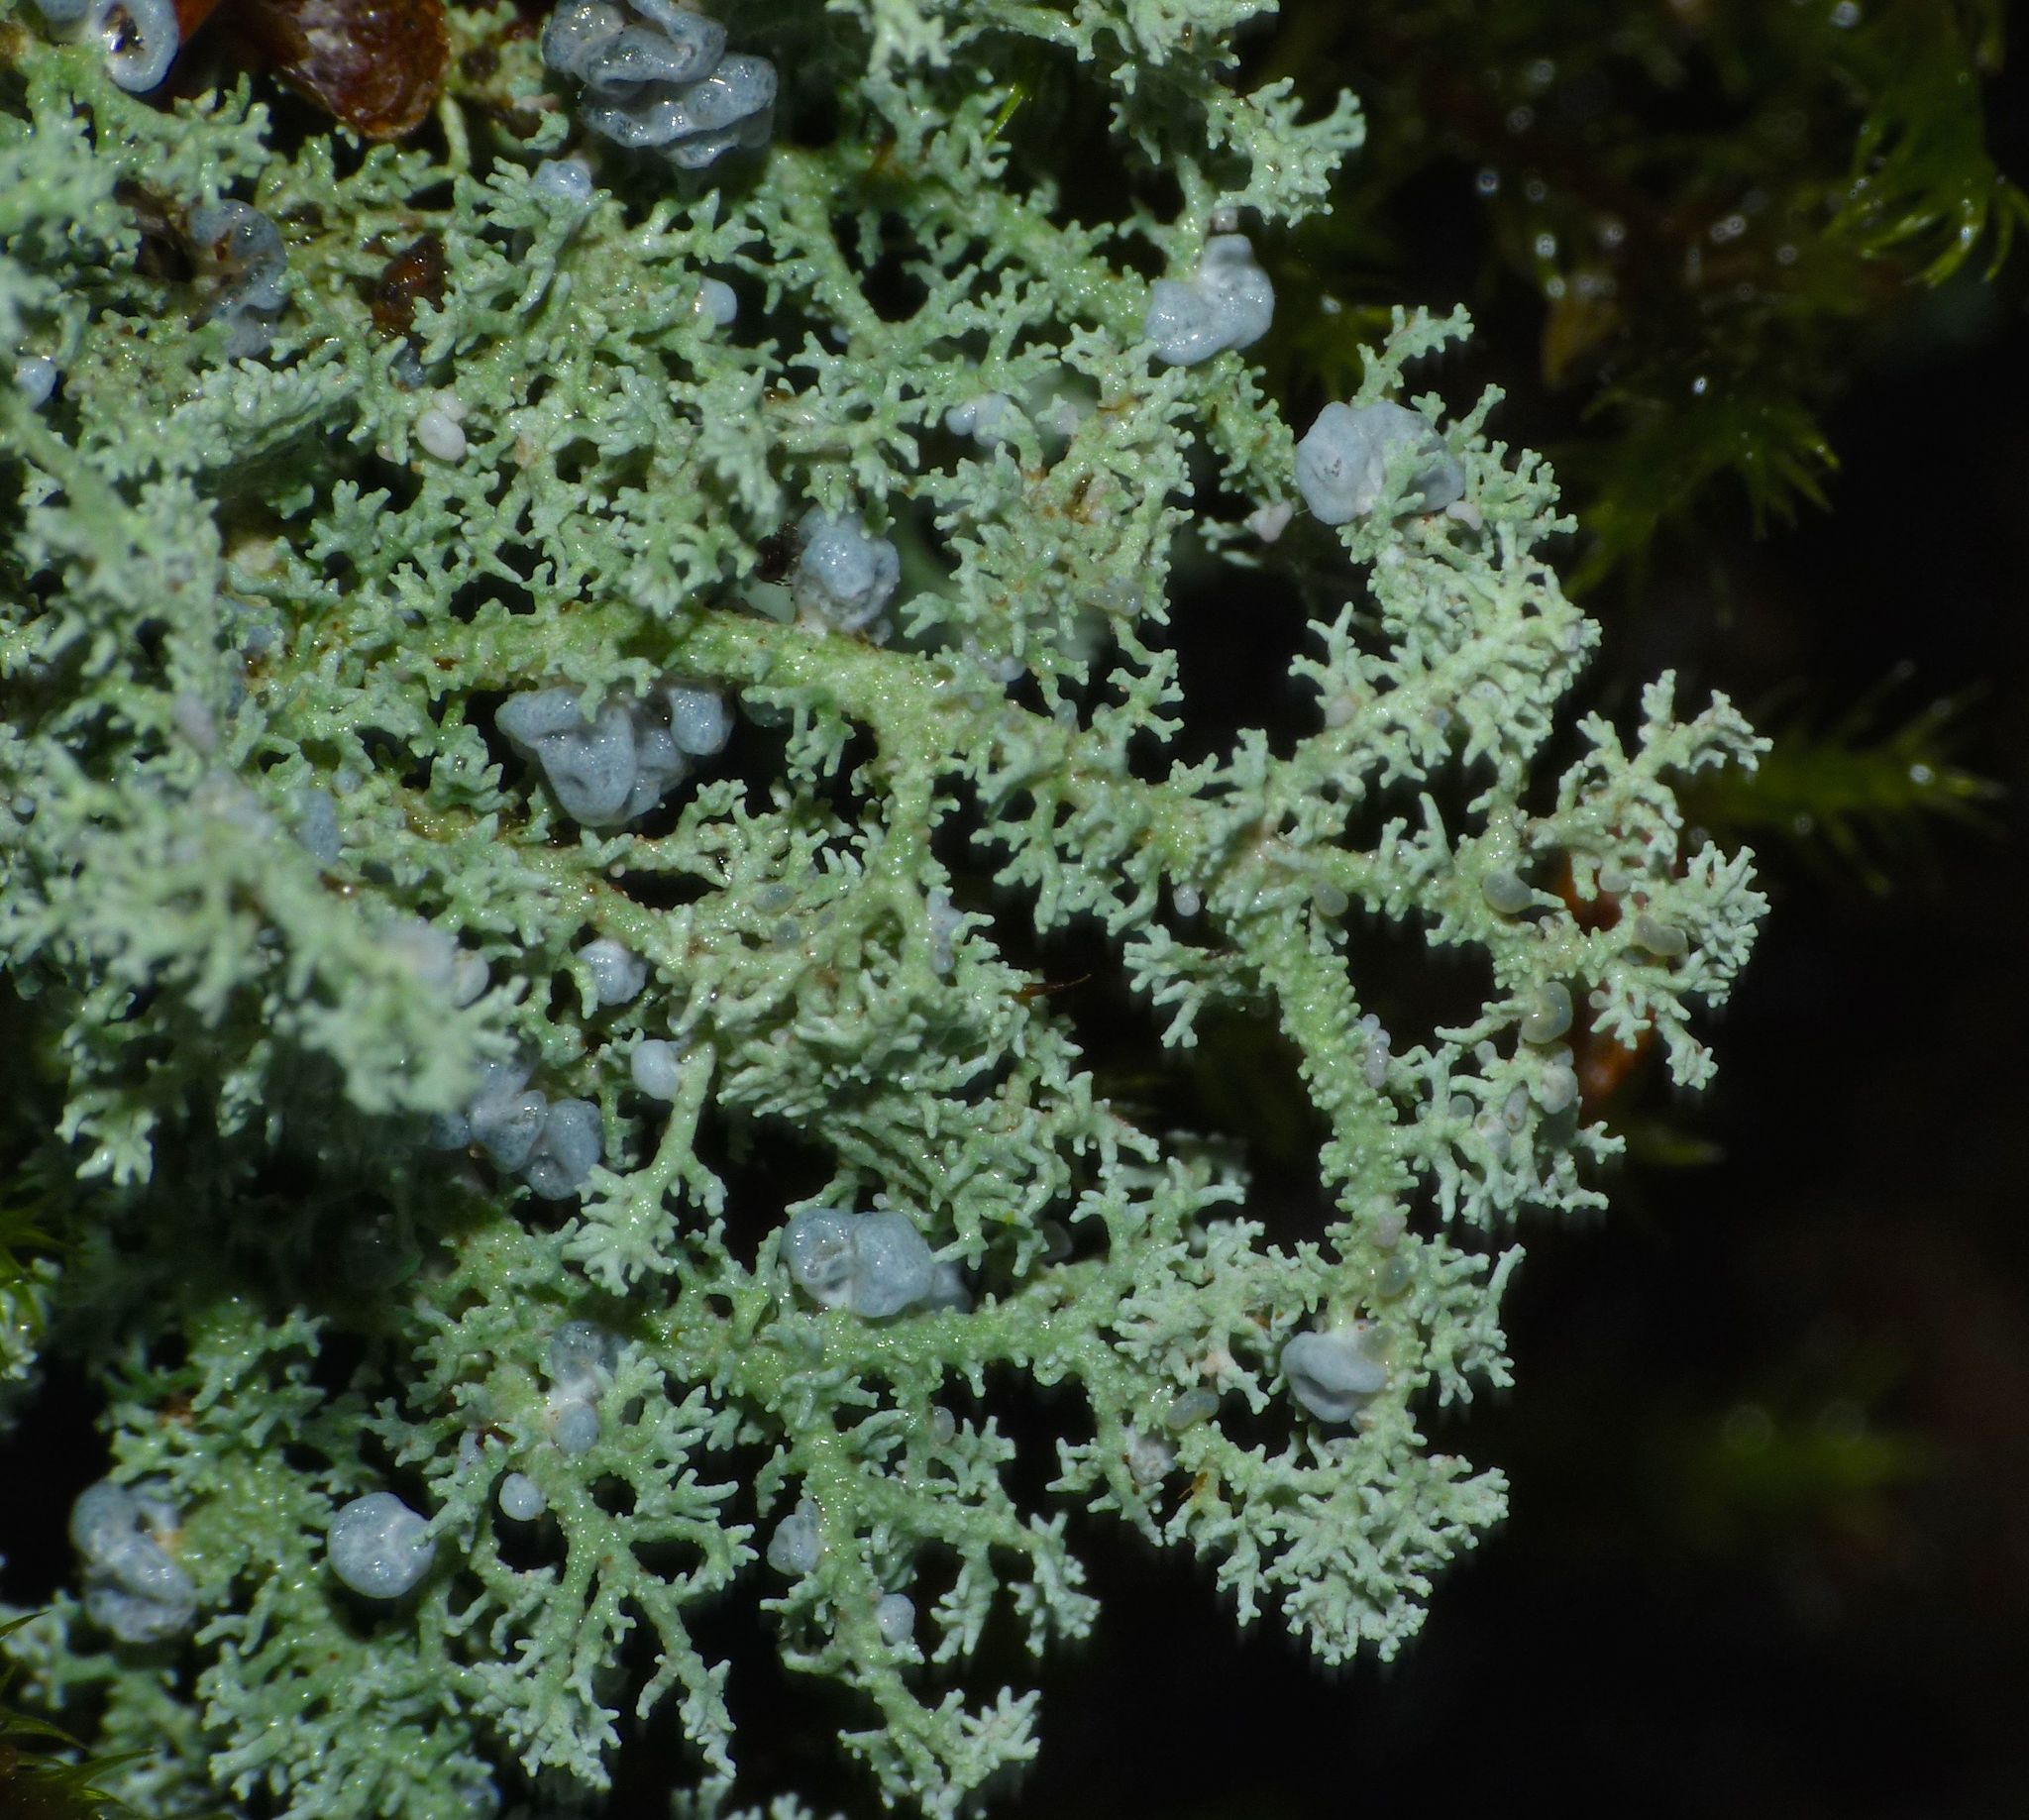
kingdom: Fungi
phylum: Ascomycota
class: Lecanoromycetes
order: Lecanorales
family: Stereocaulaceae
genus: Stereocaulon
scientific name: Stereocaulon ramulosum
